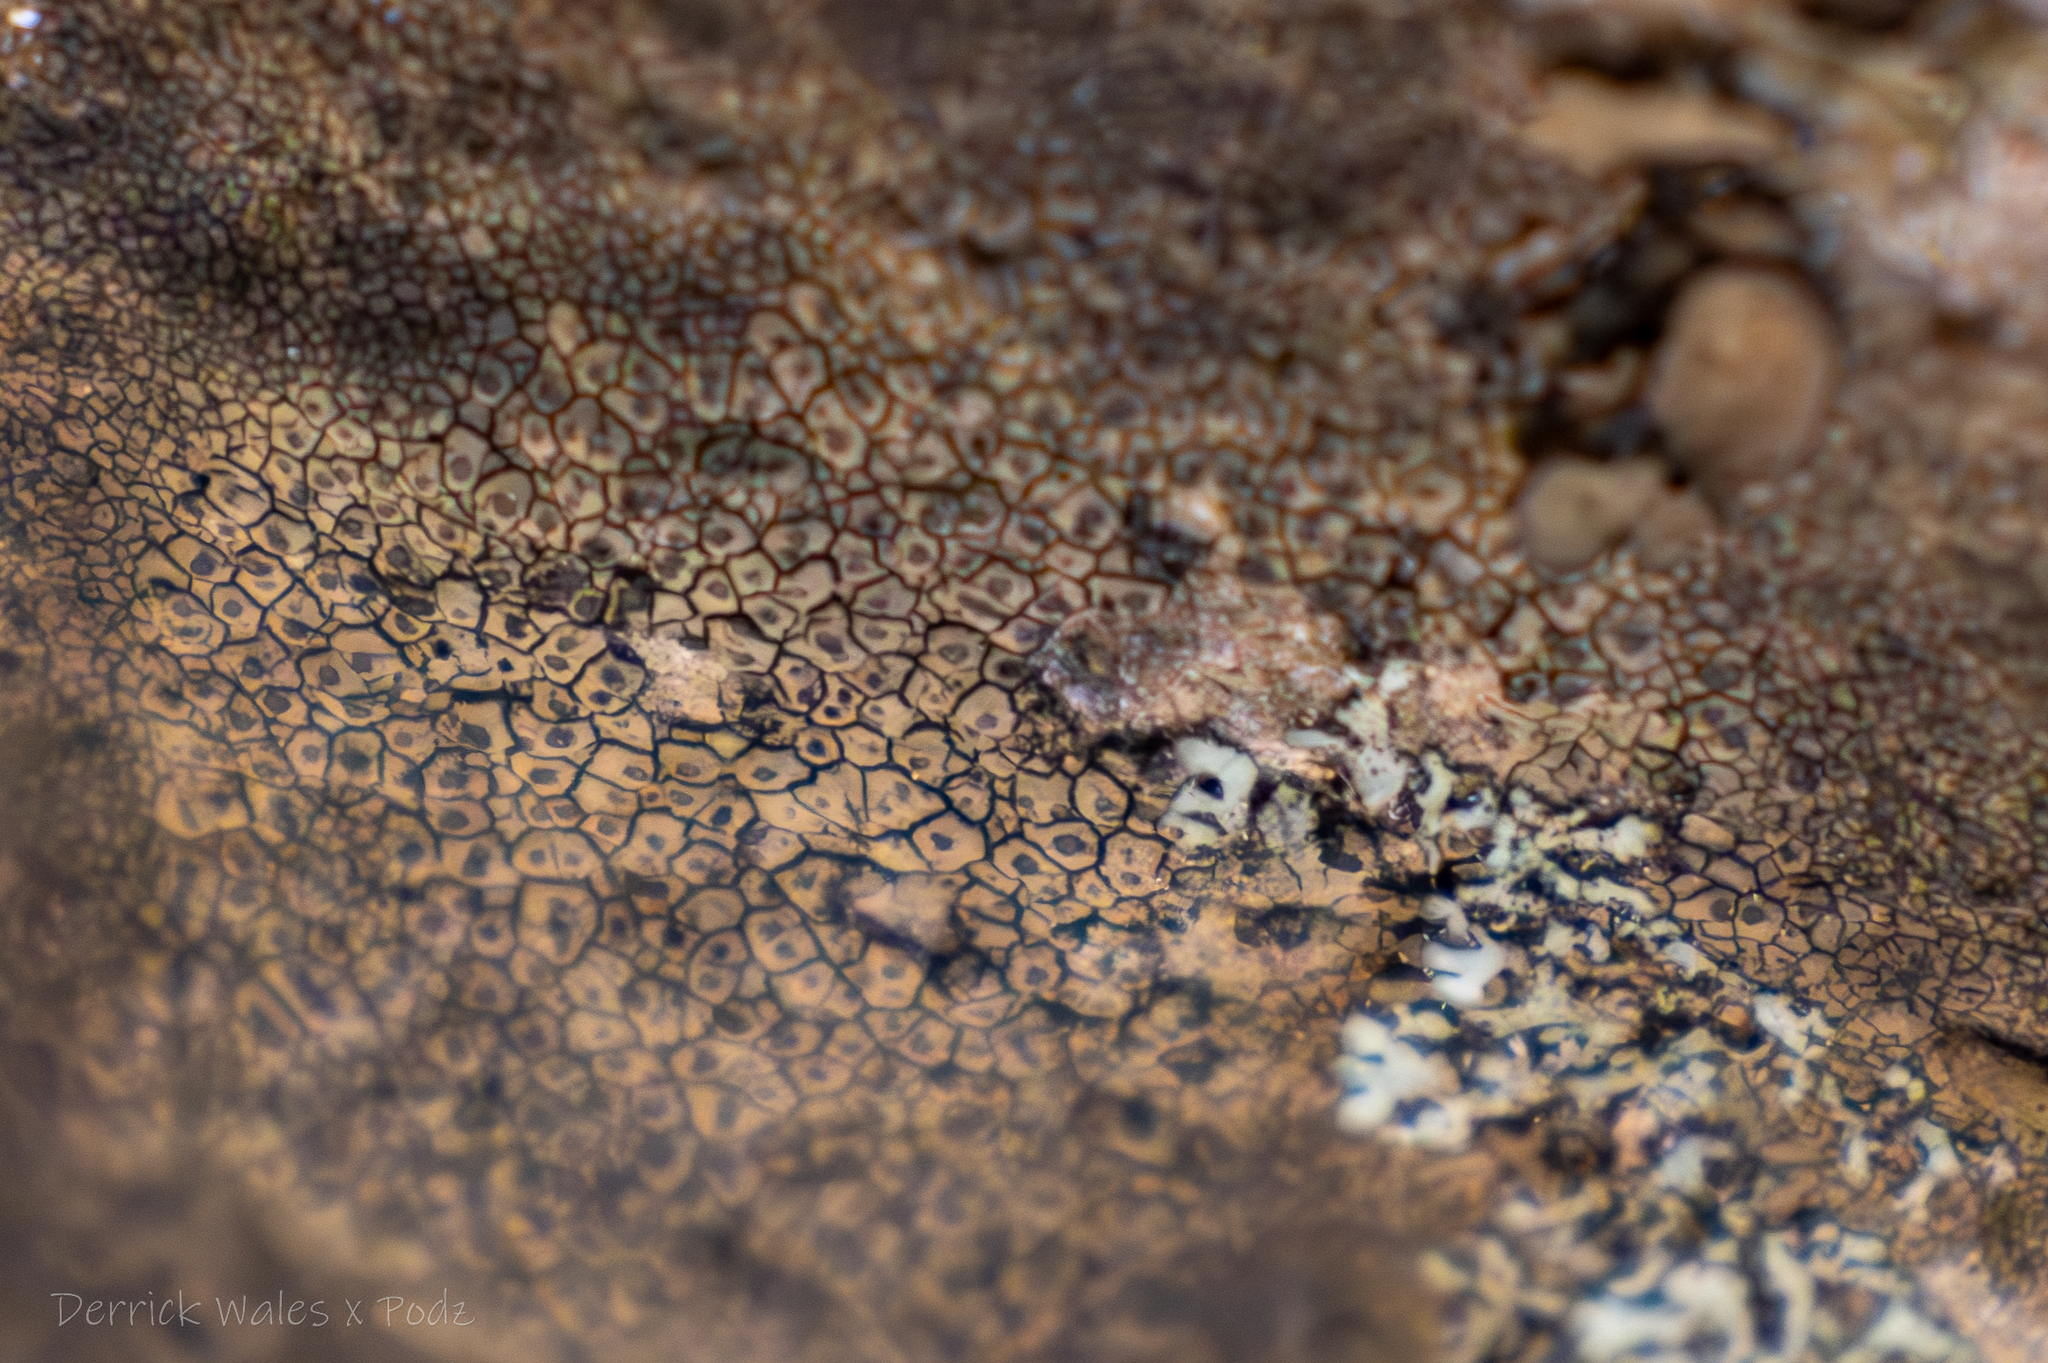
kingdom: Fungi
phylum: Ascomycota
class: Eurotiomycetes
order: Verrucariales
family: Verrucariaceae
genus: Willeya
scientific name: Willeya diffractella
